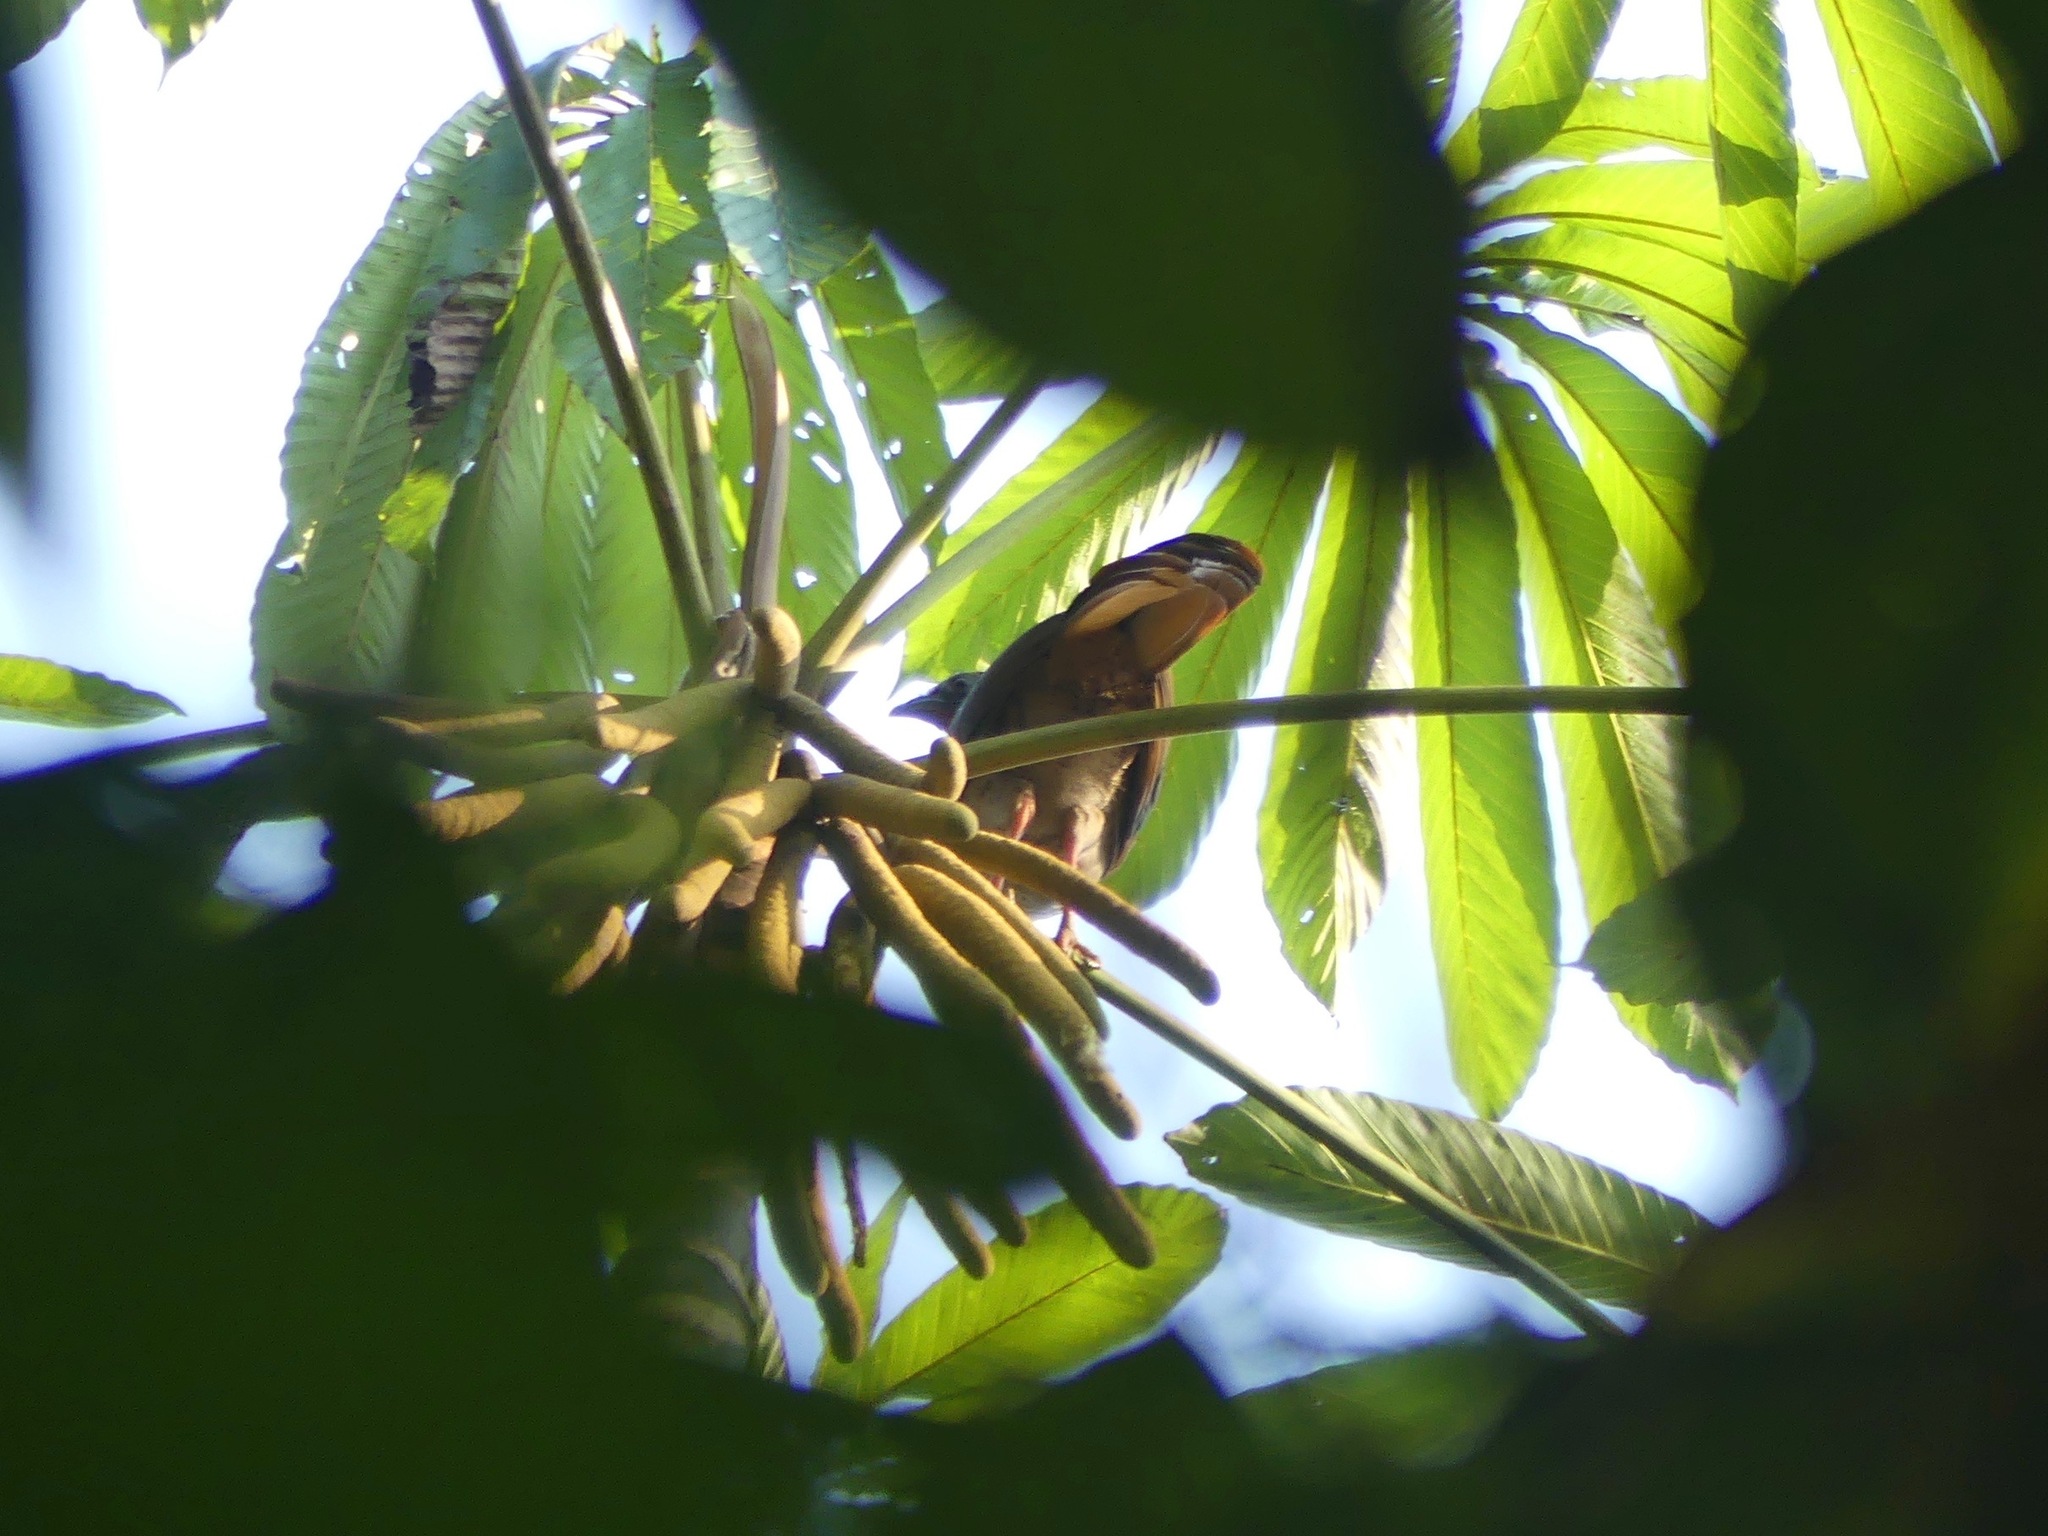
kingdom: Animalia
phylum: Chordata
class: Aves
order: Galliformes
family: Cracidae
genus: Ortalis
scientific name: Ortalis guttata
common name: Speckled chachalaca
